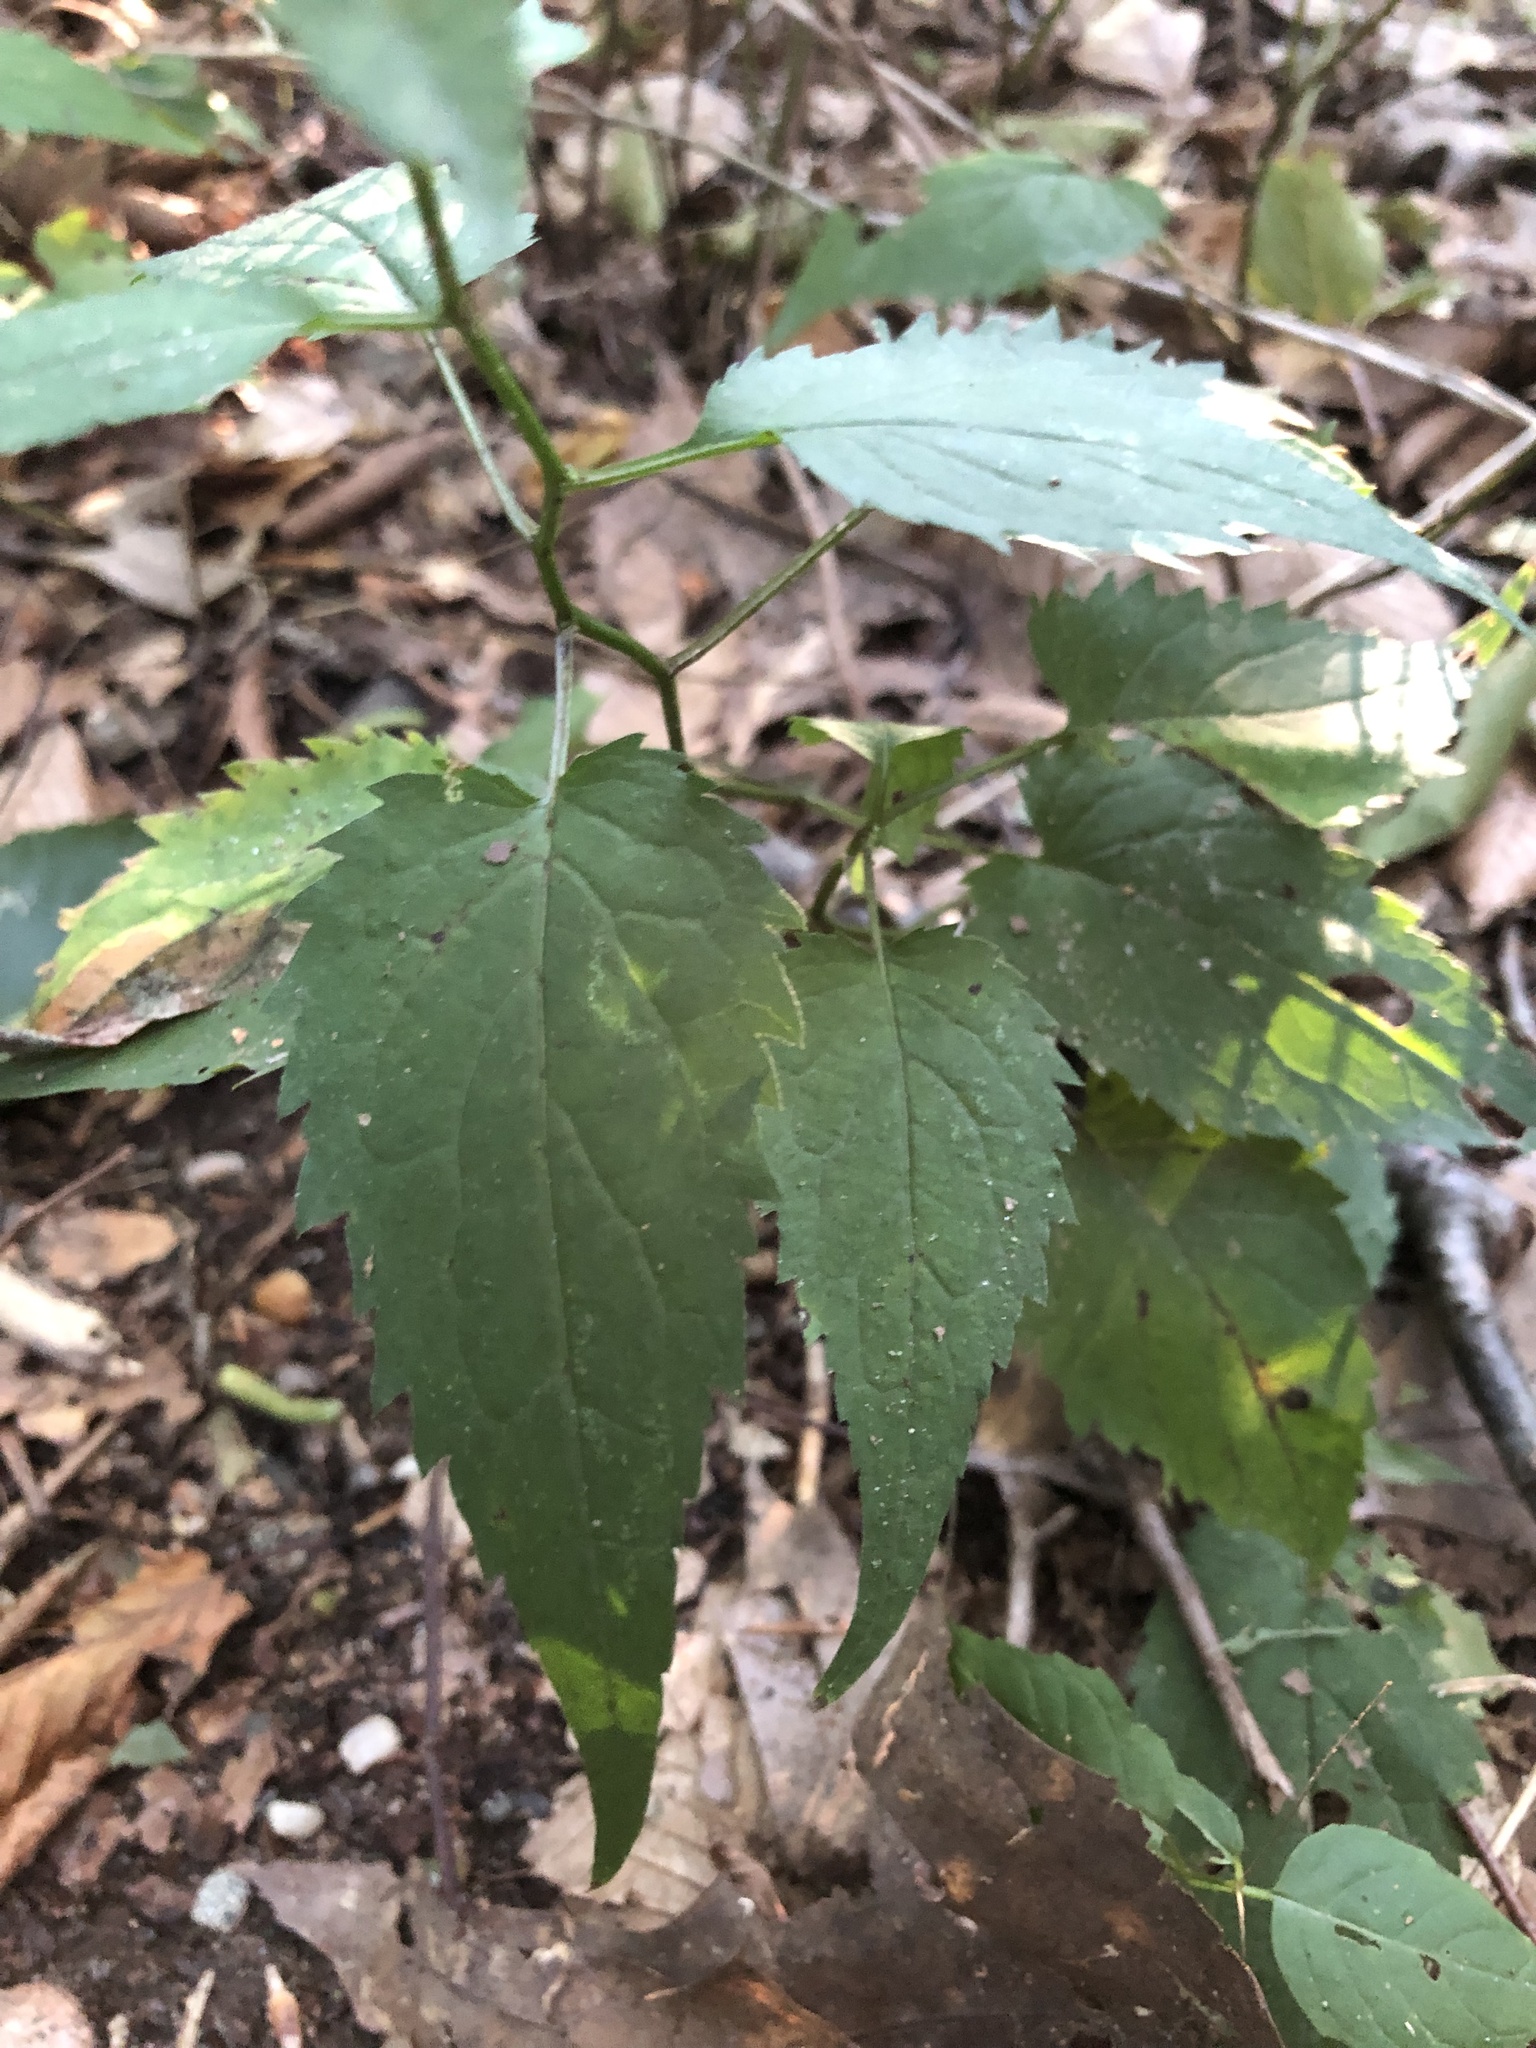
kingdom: Plantae
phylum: Tracheophyta
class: Magnoliopsida
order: Asterales
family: Asteraceae
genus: Eurybia
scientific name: Eurybia divaricata
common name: White wood aster
